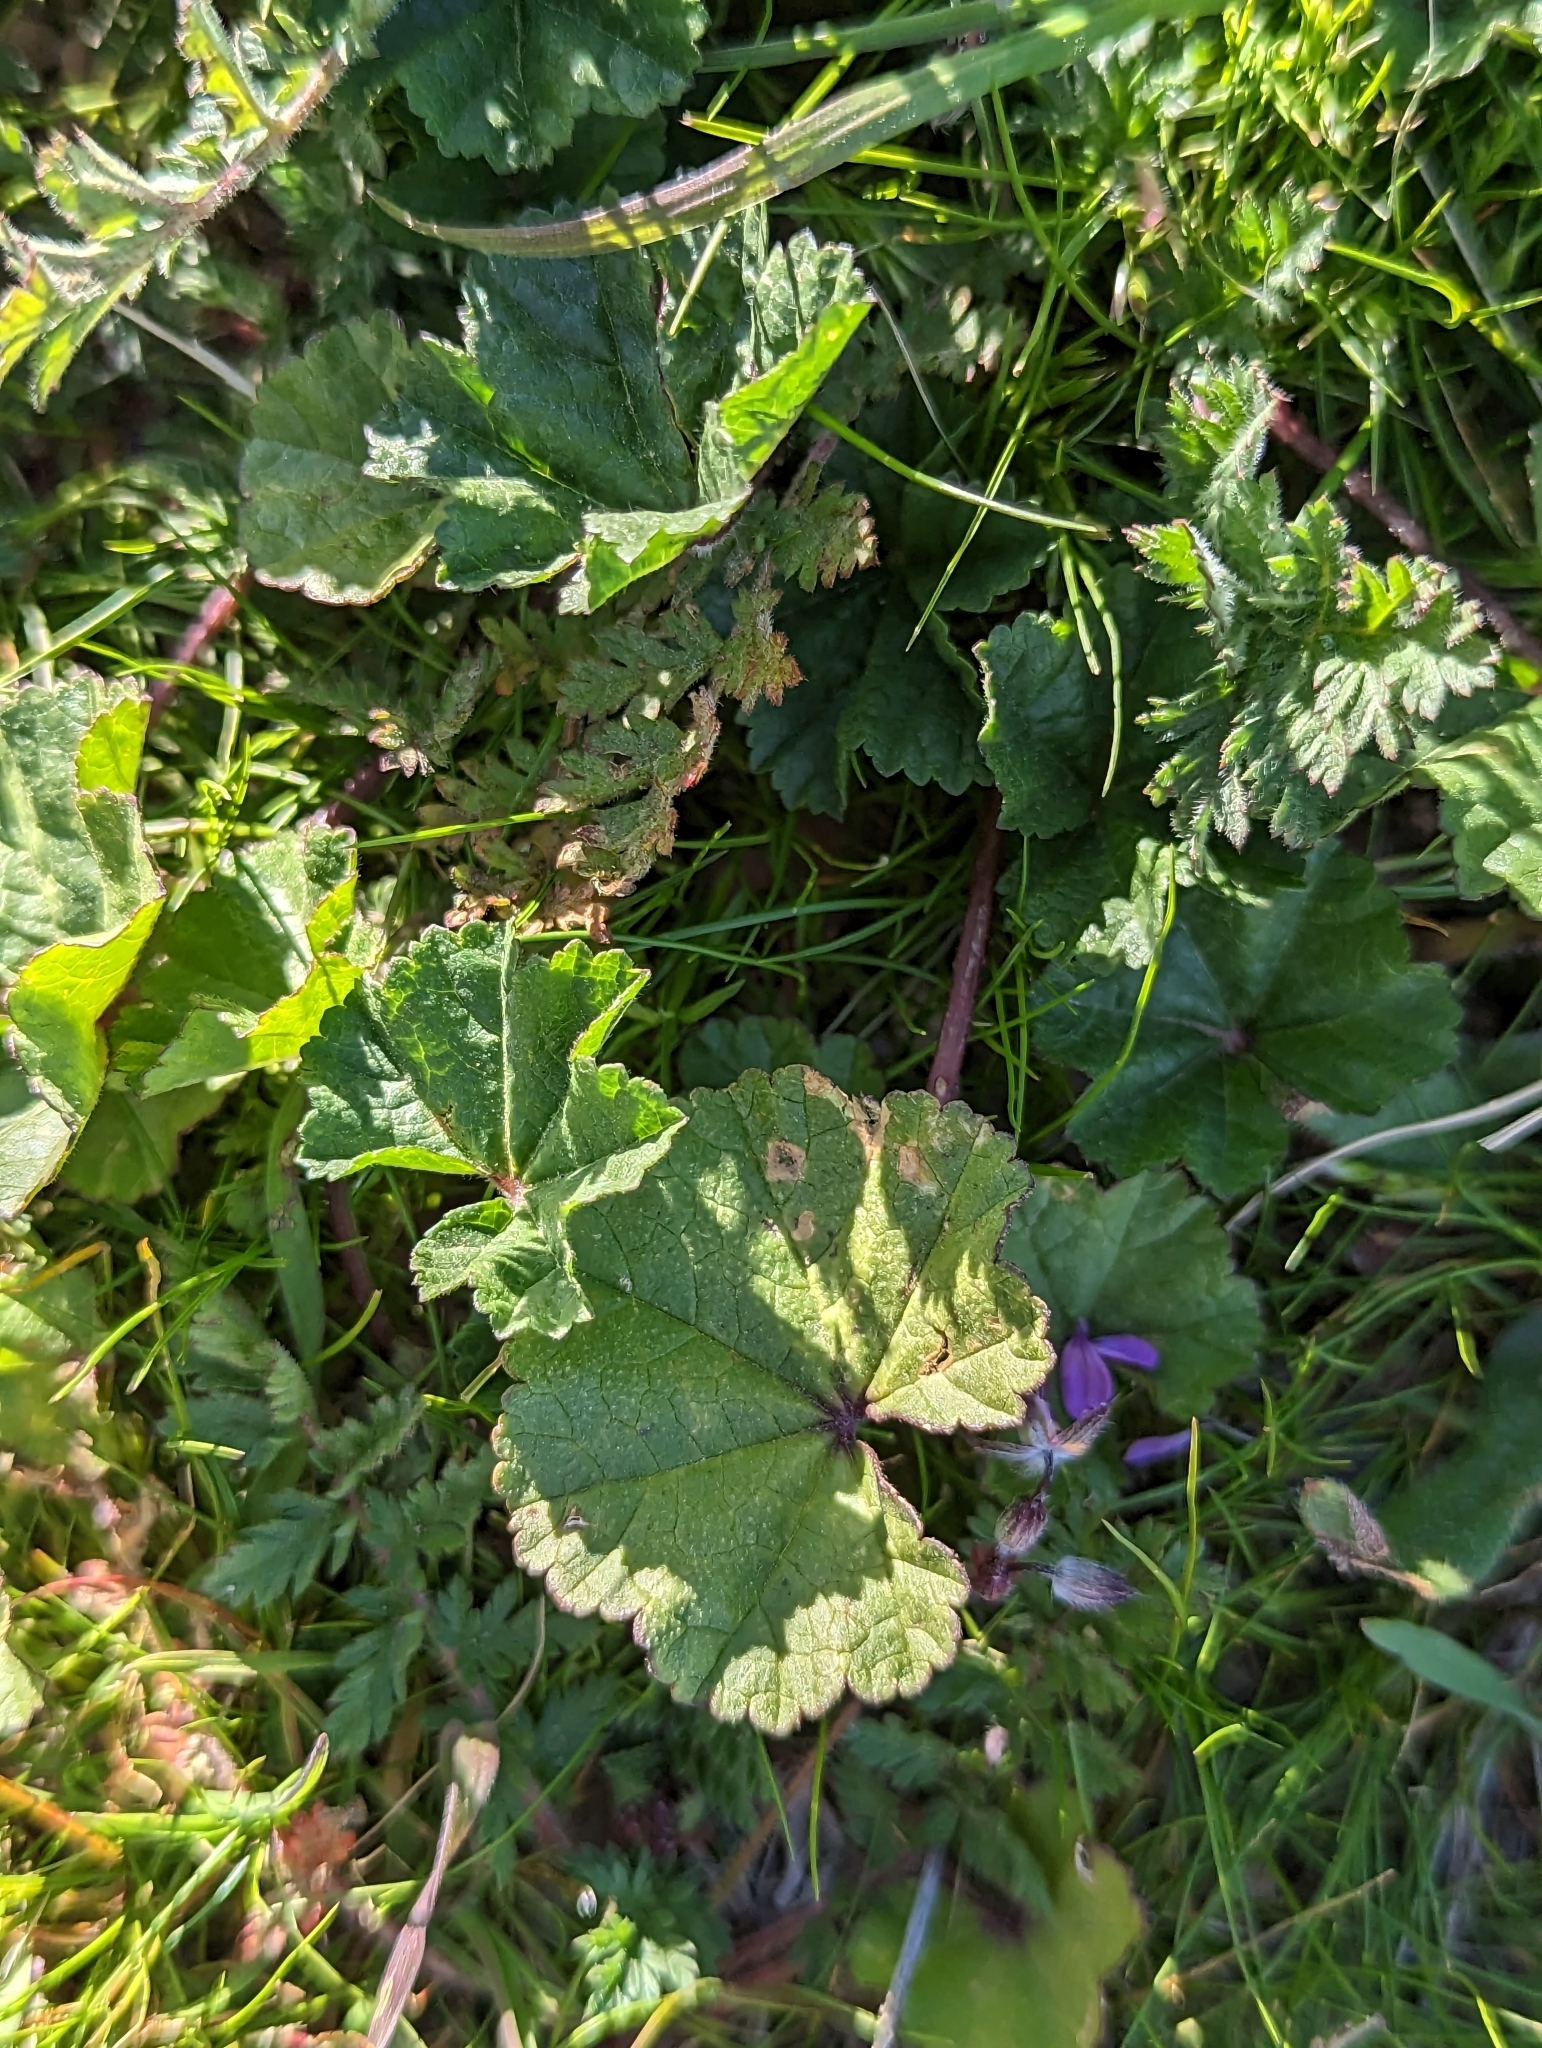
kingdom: Plantae
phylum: Tracheophyta
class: Magnoliopsida
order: Malvales
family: Malvaceae
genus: Malva
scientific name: Malva parviflora
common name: Least mallow
